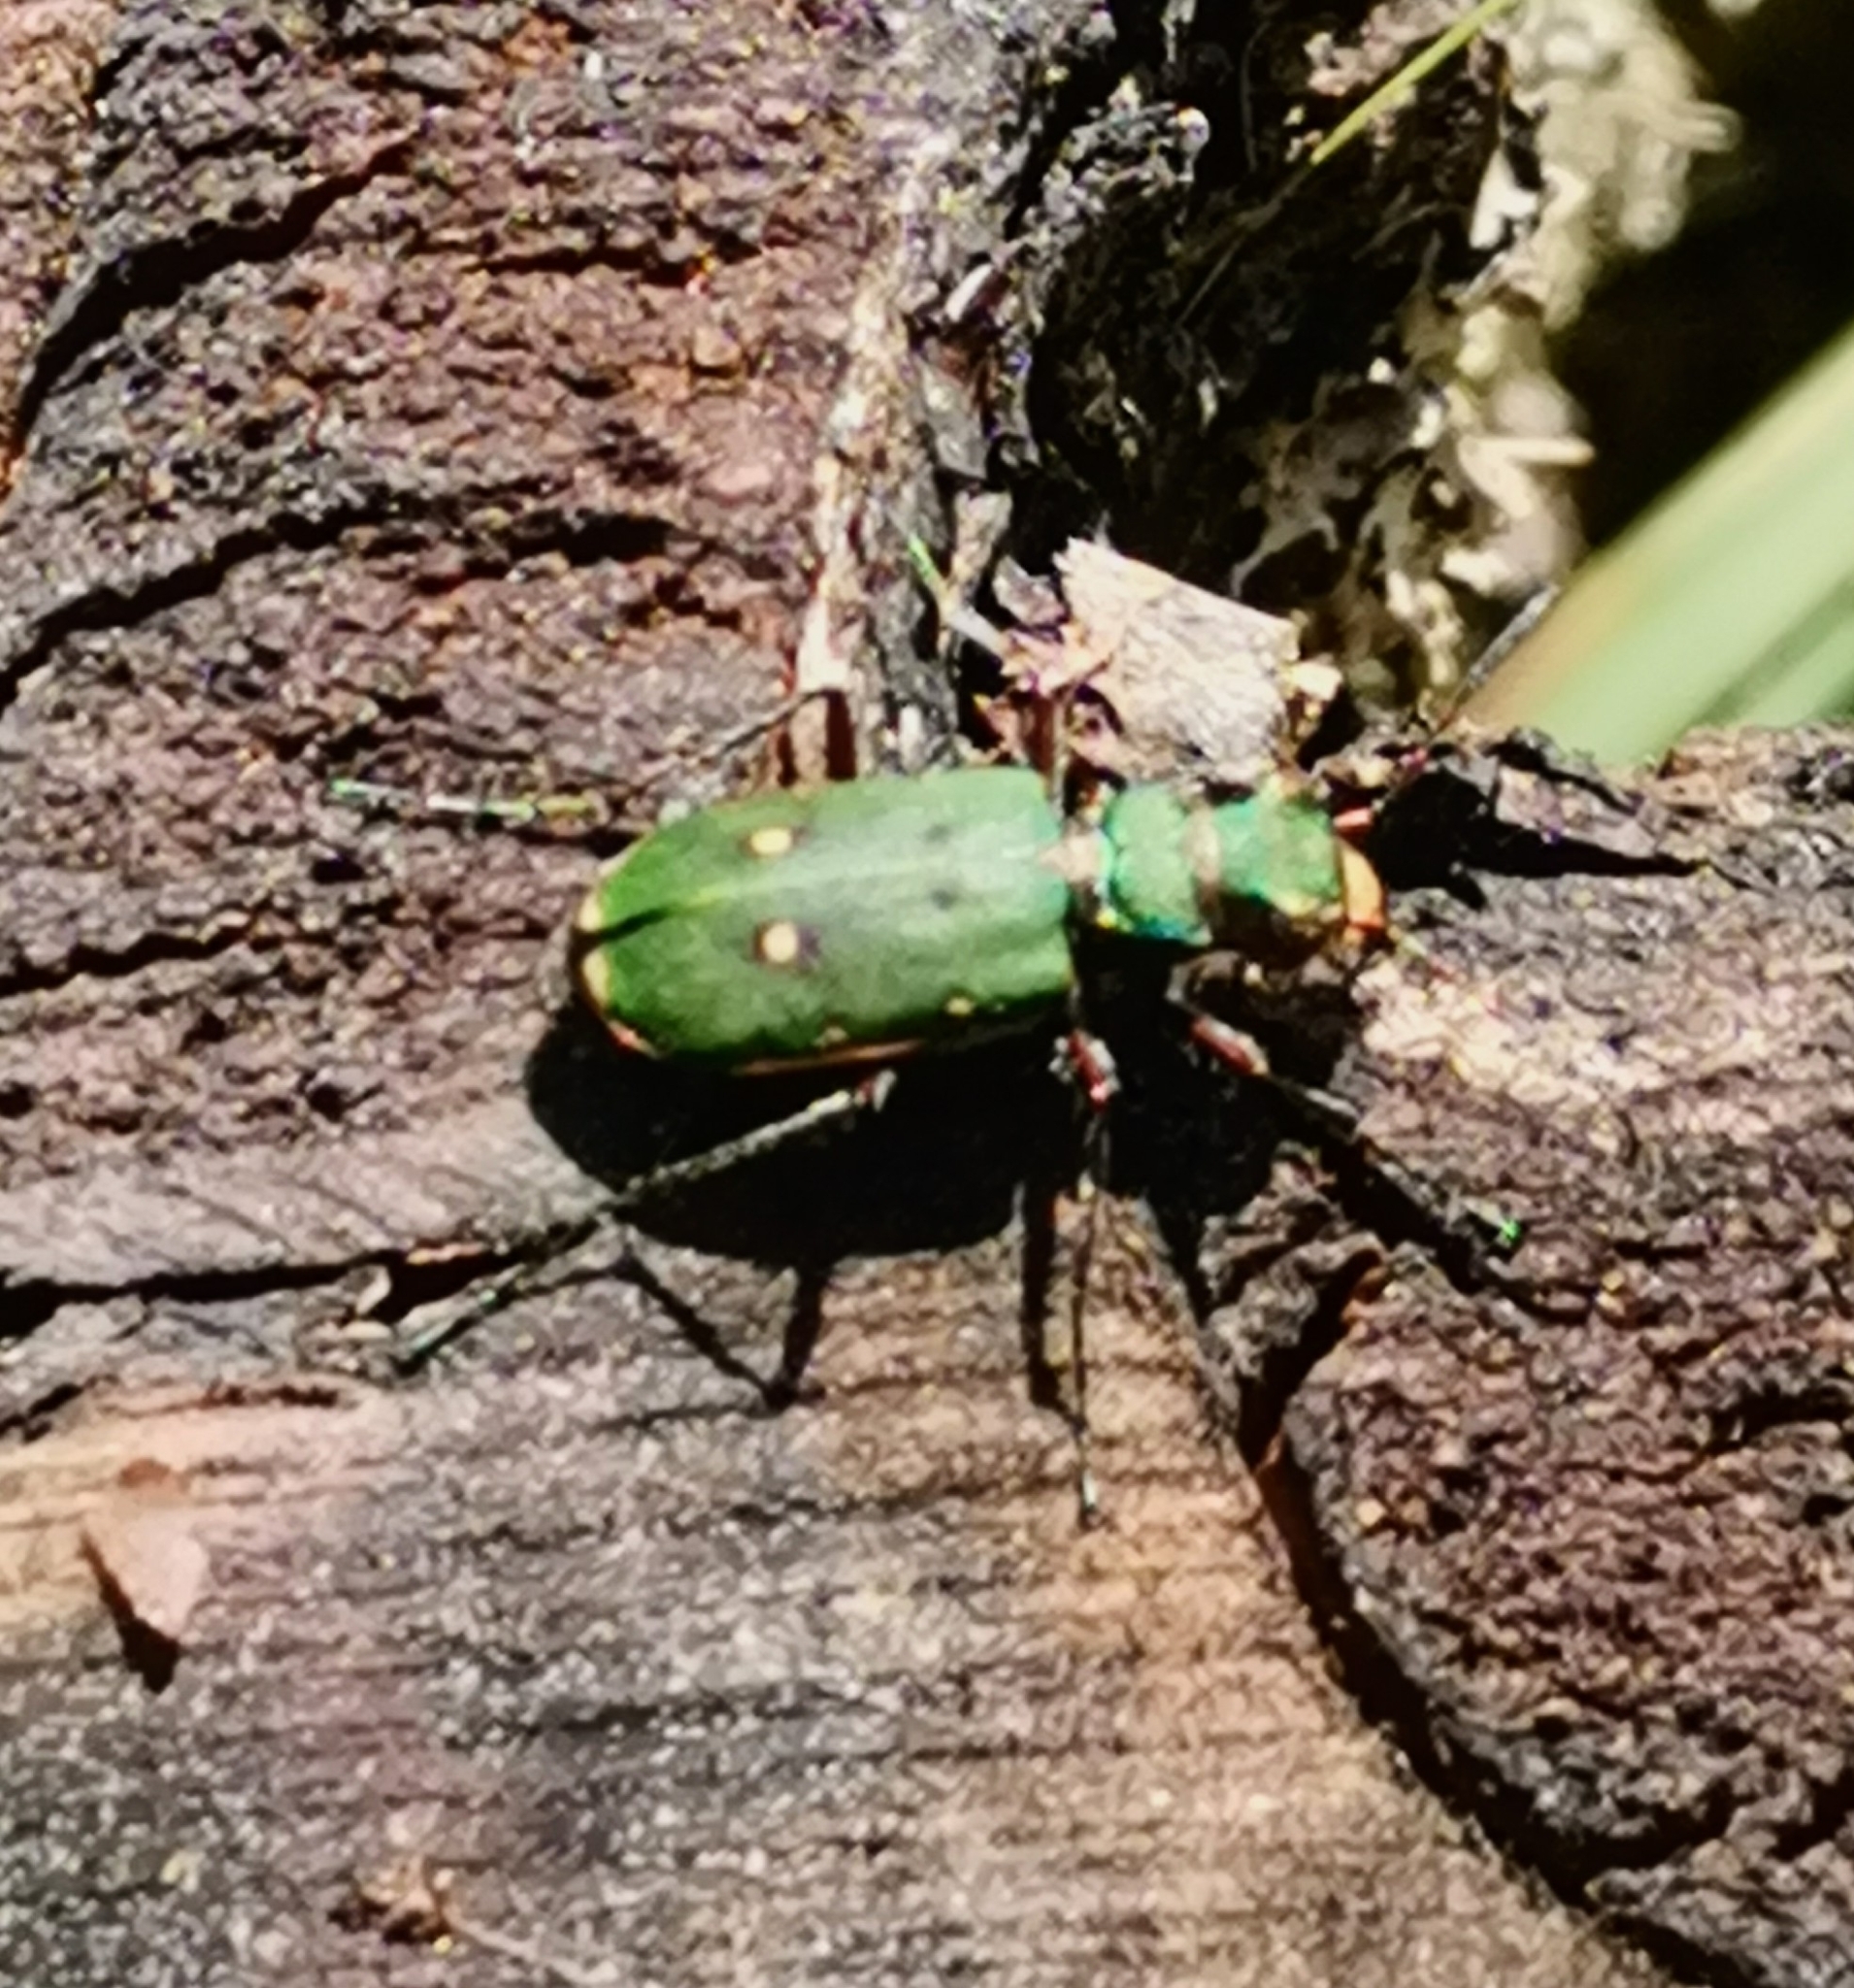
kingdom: Animalia
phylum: Arthropoda
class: Insecta
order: Coleoptera
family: Carabidae
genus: Cicindela
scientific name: Cicindela campestris
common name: Common tiger beetle
